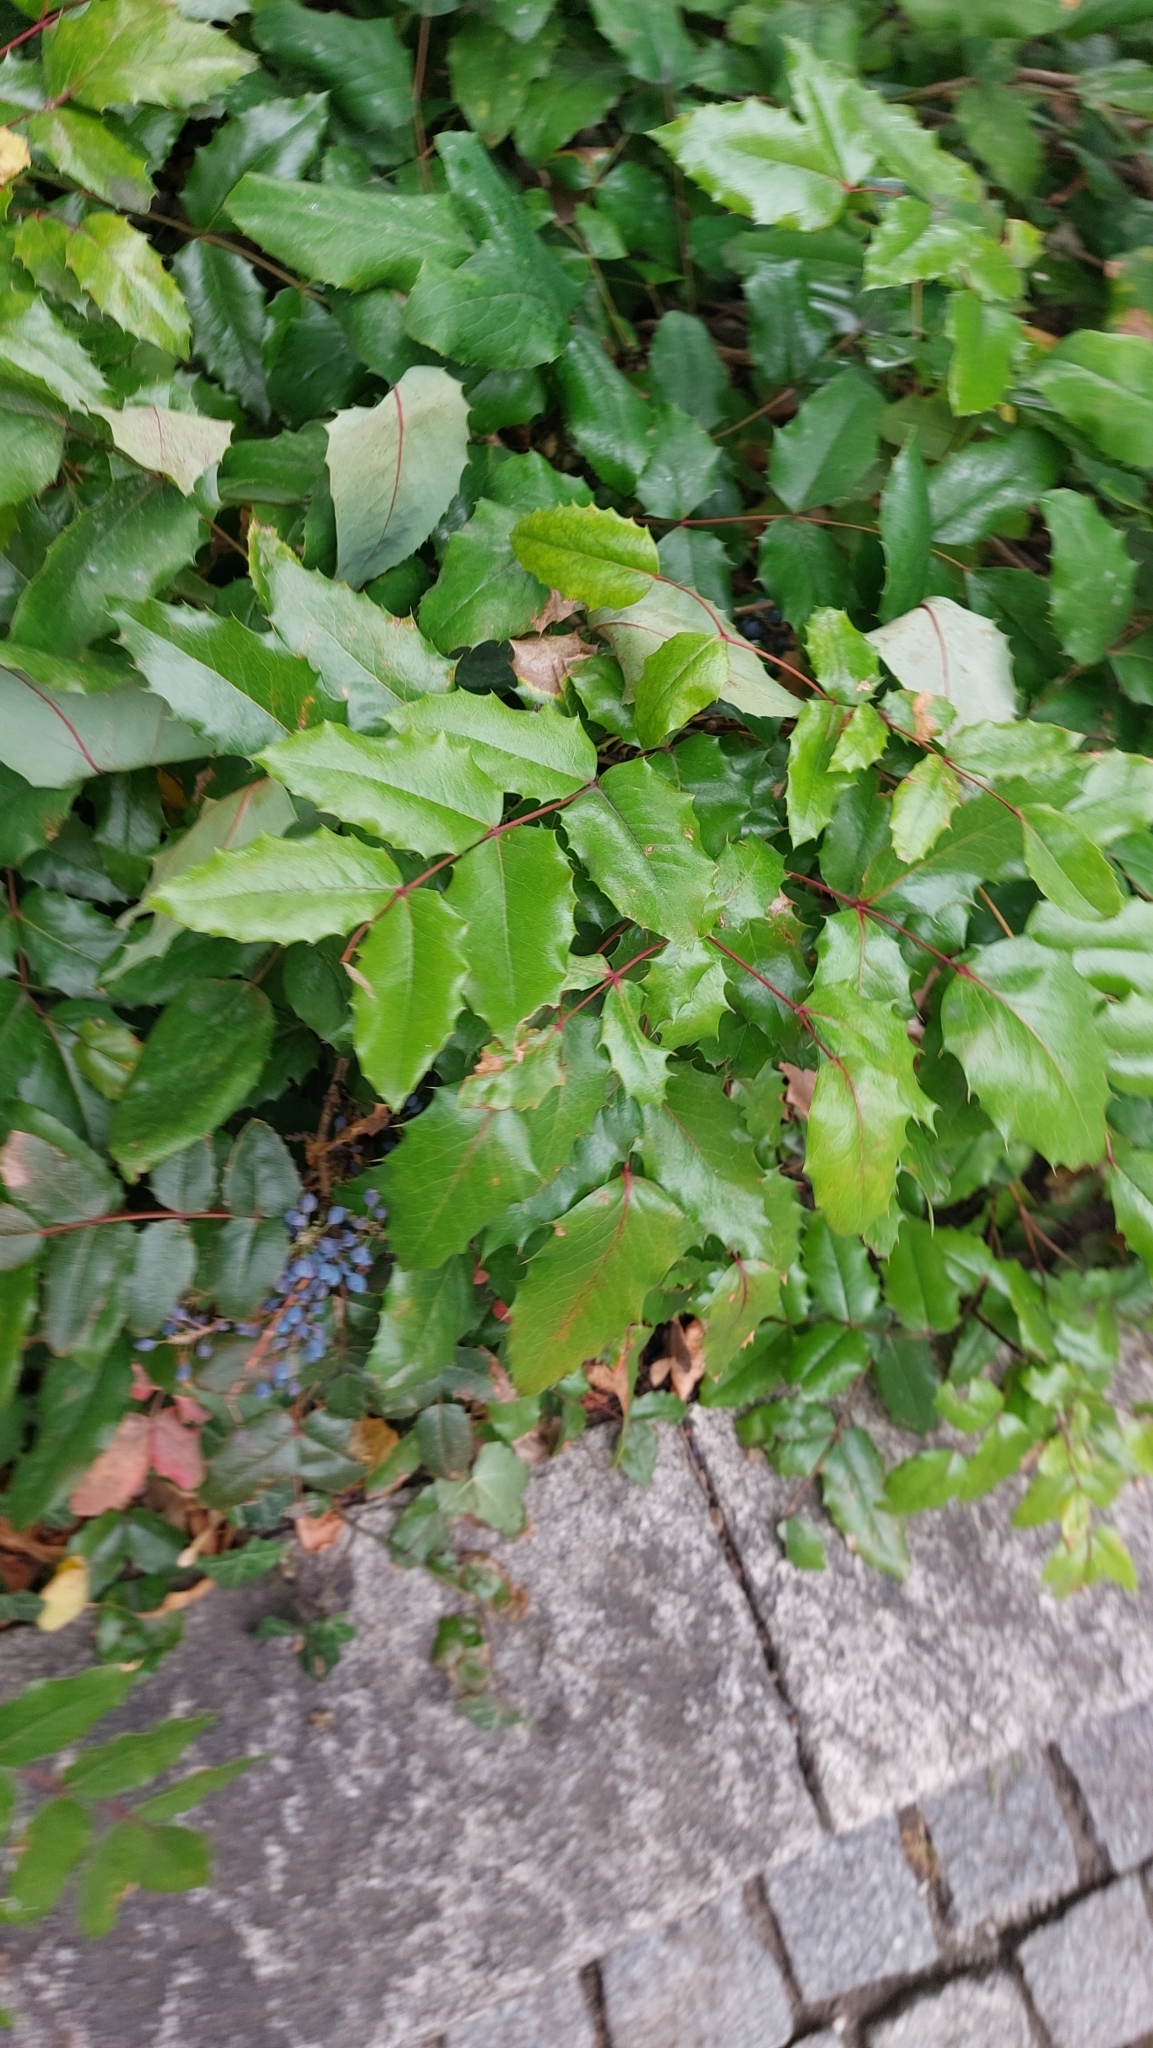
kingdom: Plantae
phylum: Tracheophyta
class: Magnoliopsida
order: Ranunculales
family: Berberidaceae
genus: Mahonia
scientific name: Mahonia aquifolium
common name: Oregon-grape
